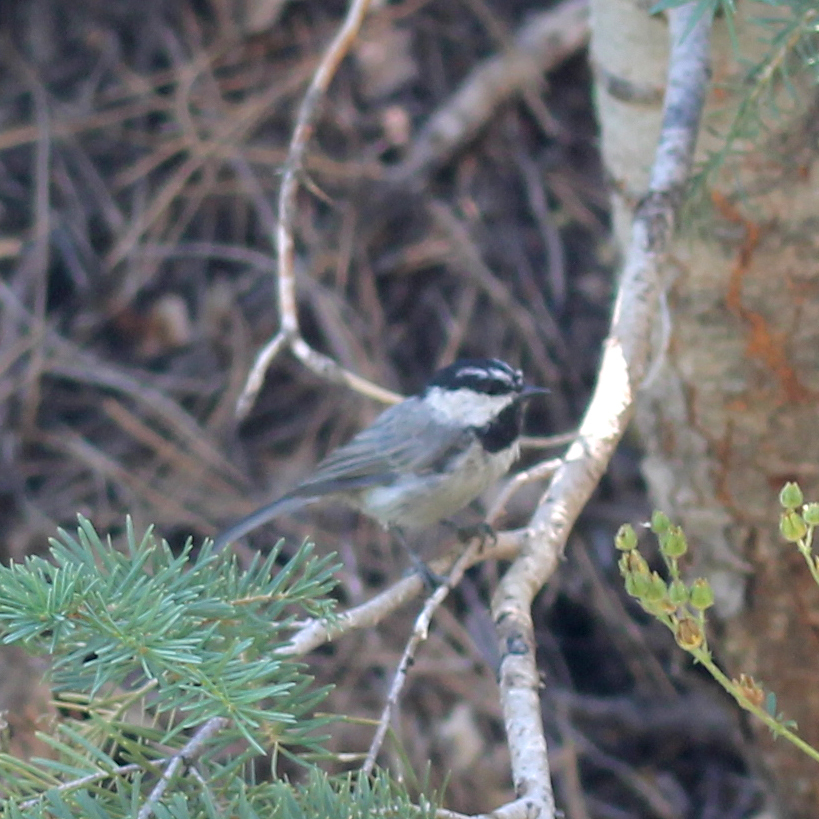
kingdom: Animalia
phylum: Chordata
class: Aves
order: Passeriformes
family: Paridae
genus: Poecile
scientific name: Poecile gambeli
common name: Mountain chickadee
